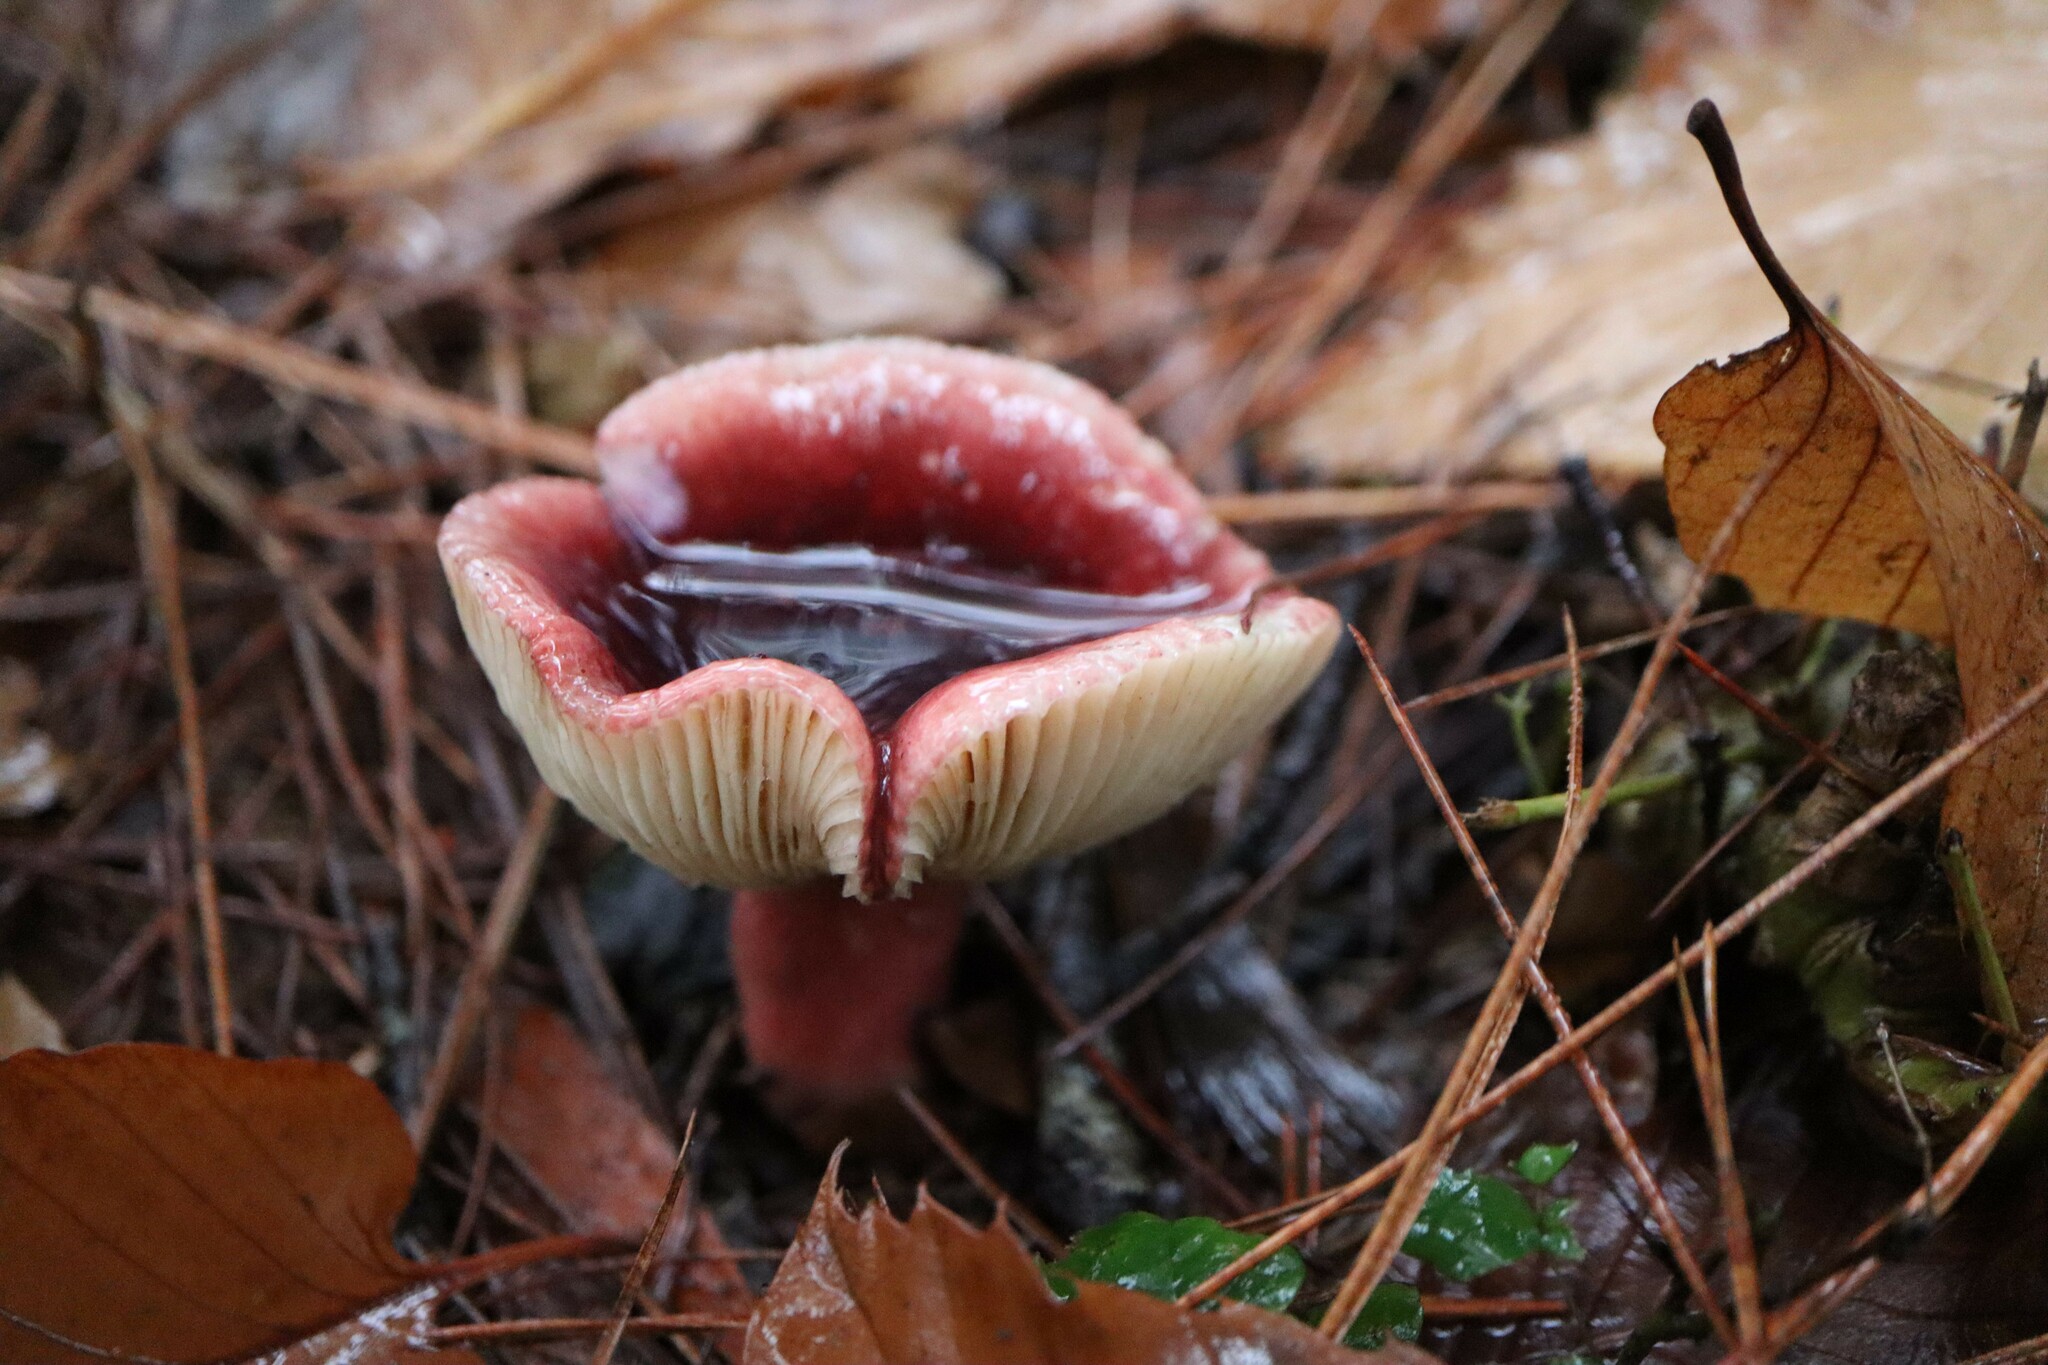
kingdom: Fungi
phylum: Basidiomycota
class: Agaricomycetes
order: Russulales
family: Russulaceae
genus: Russula
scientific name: Russula sardonia
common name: Primrose brittlegill
